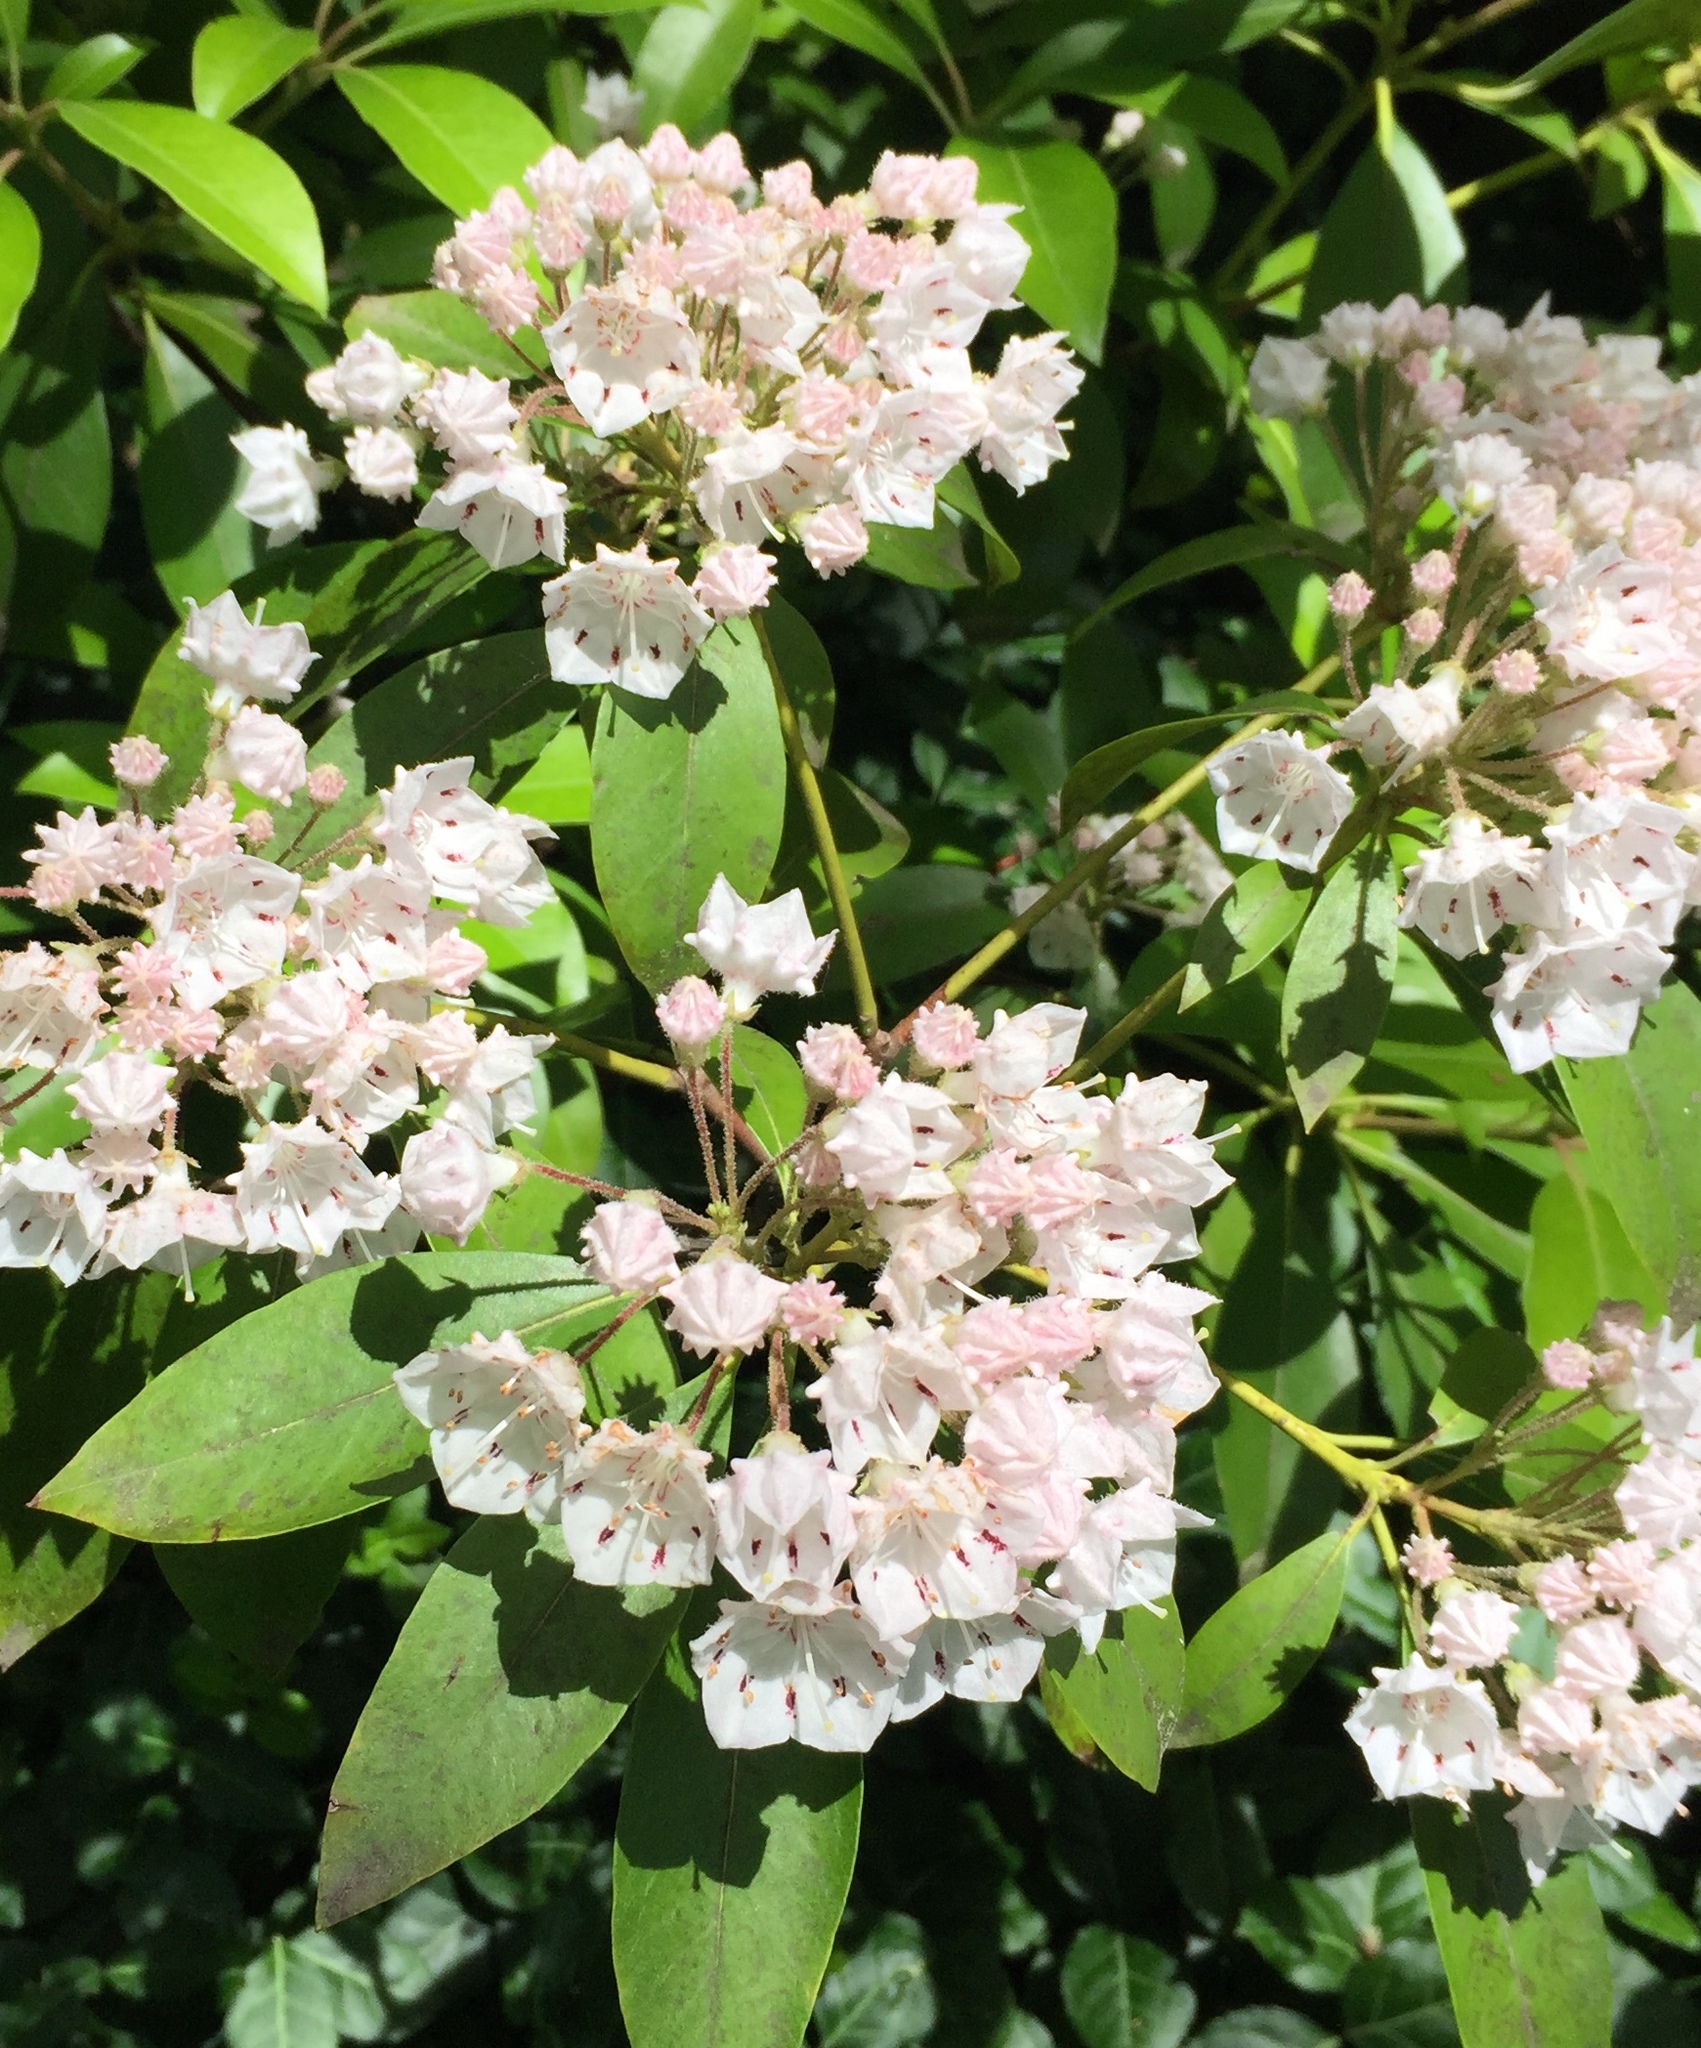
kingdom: Plantae
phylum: Tracheophyta
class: Magnoliopsida
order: Ericales
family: Ericaceae
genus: Kalmia
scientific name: Kalmia latifolia
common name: Mountain-laurel
